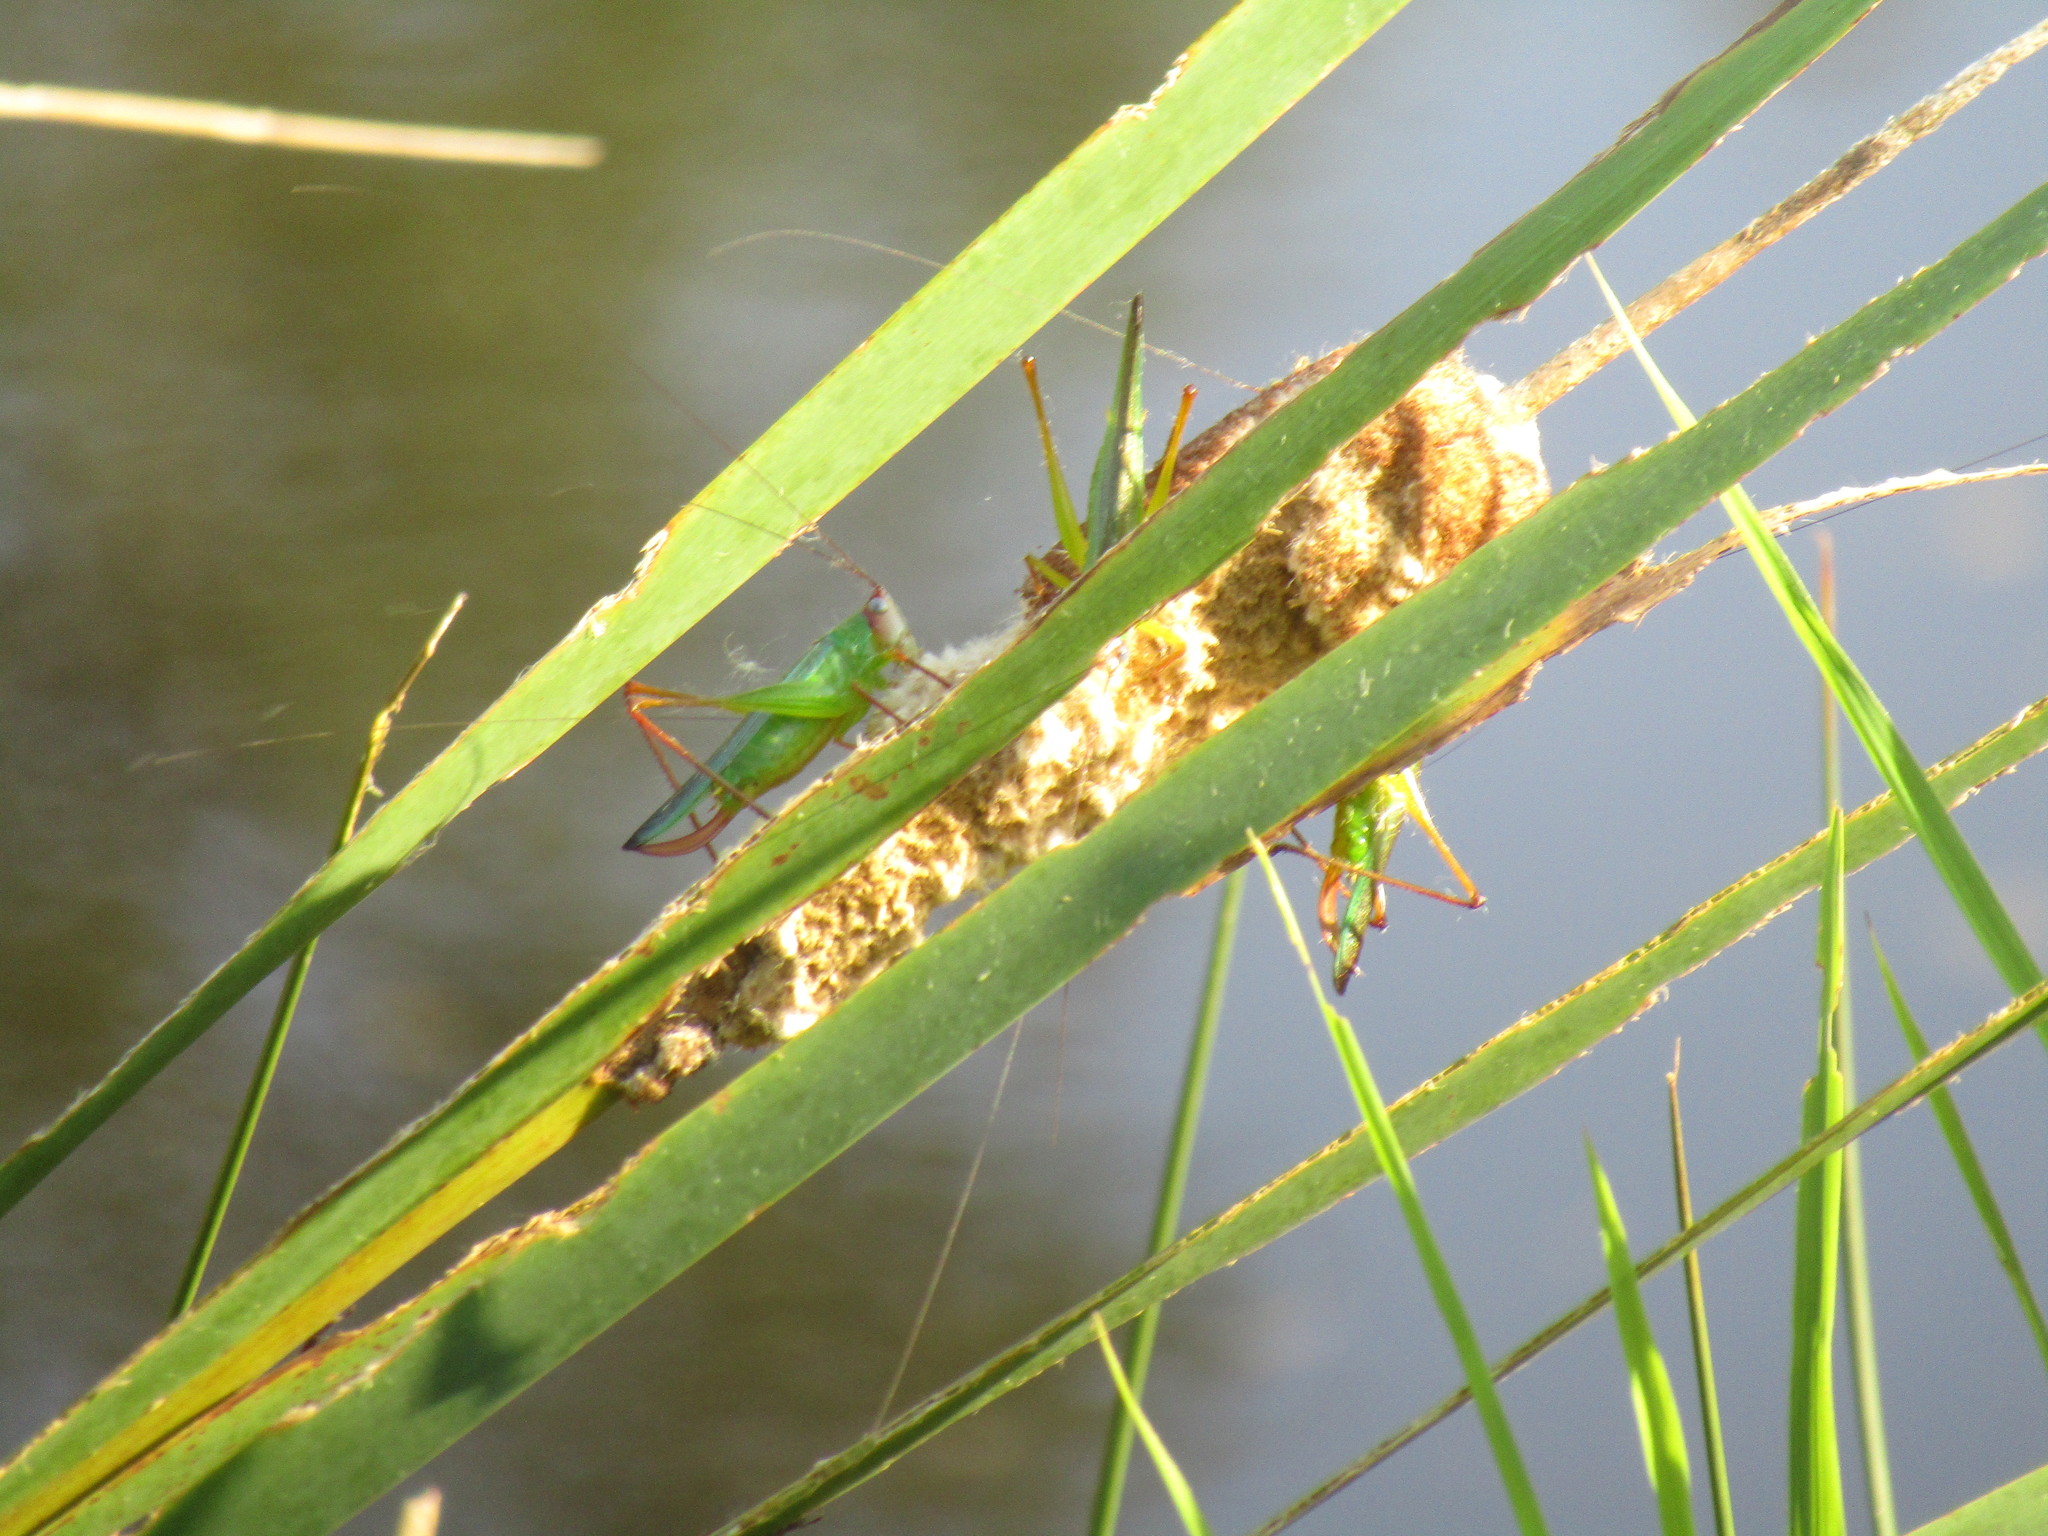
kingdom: Animalia
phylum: Arthropoda
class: Insecta
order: Orthoptera
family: Tettigoniidae
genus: Orchelimum
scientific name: Orchelimum pulchellum
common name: Handsome meadow katydid
